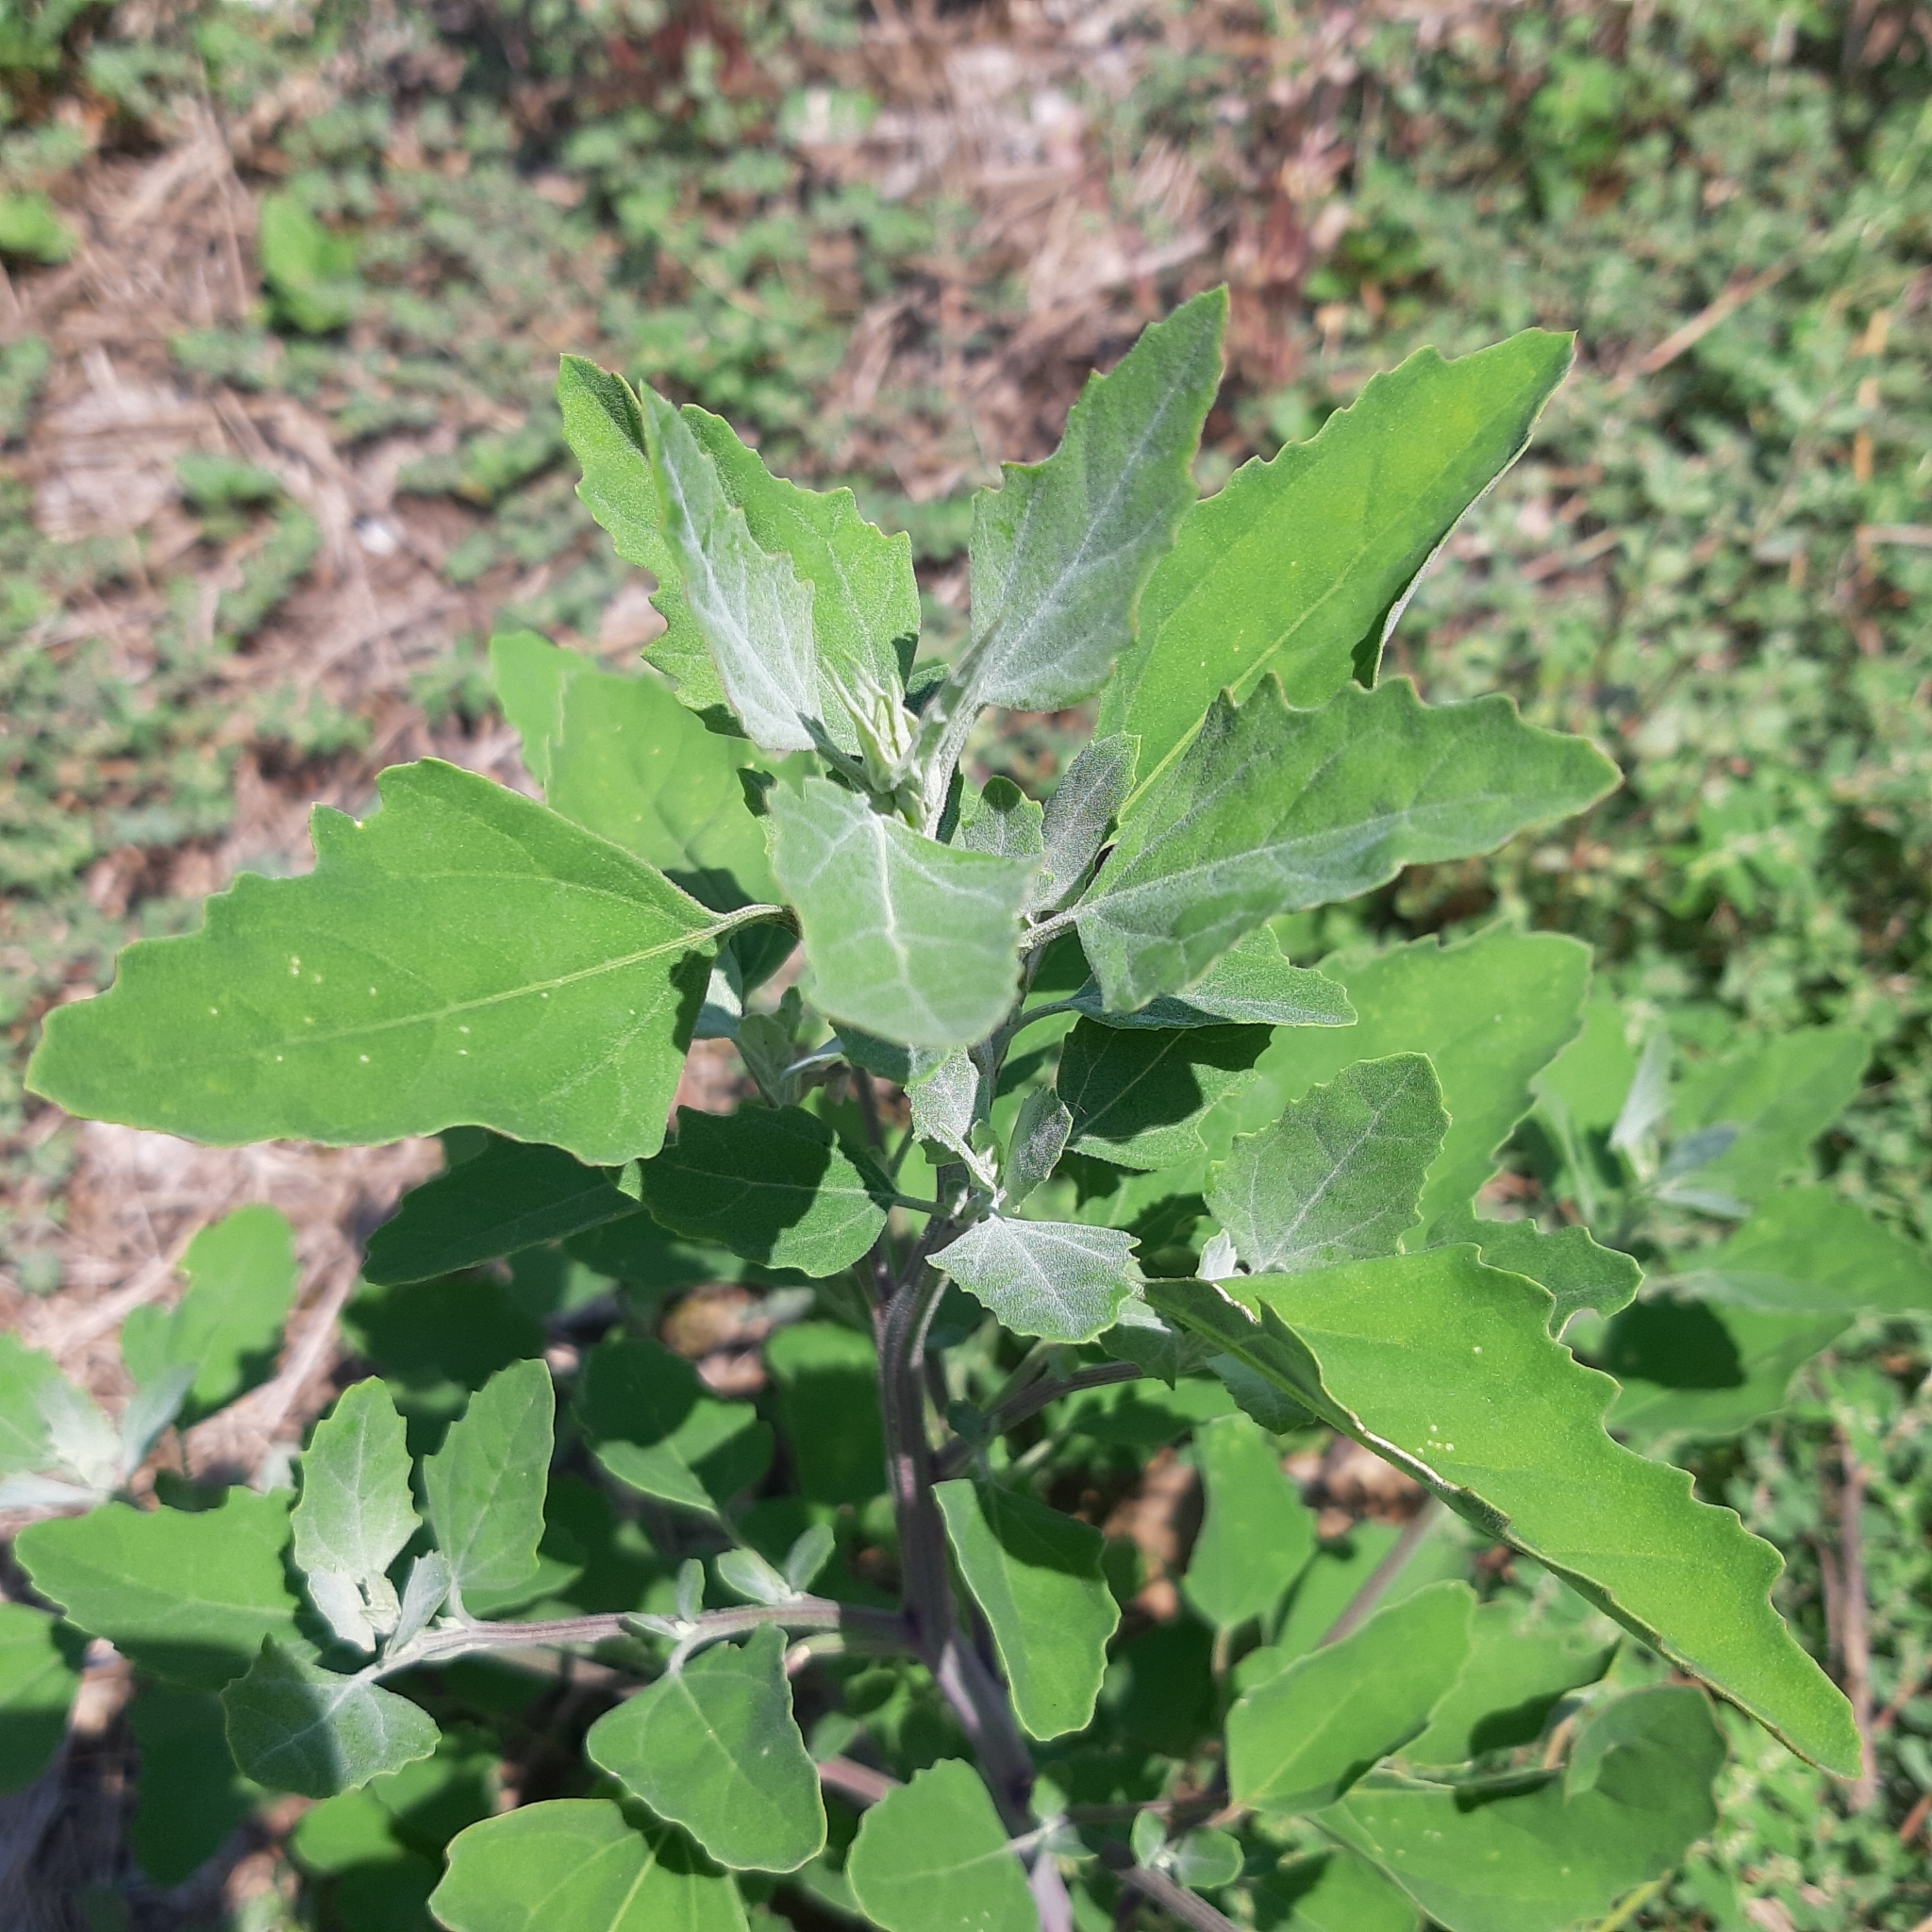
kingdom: Plantae
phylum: Tracheophyta
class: Magnoliopsida
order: Caryophyllales
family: Amaranthaceae
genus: Chenopodium
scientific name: Chenopodium album
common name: Fat-hen
